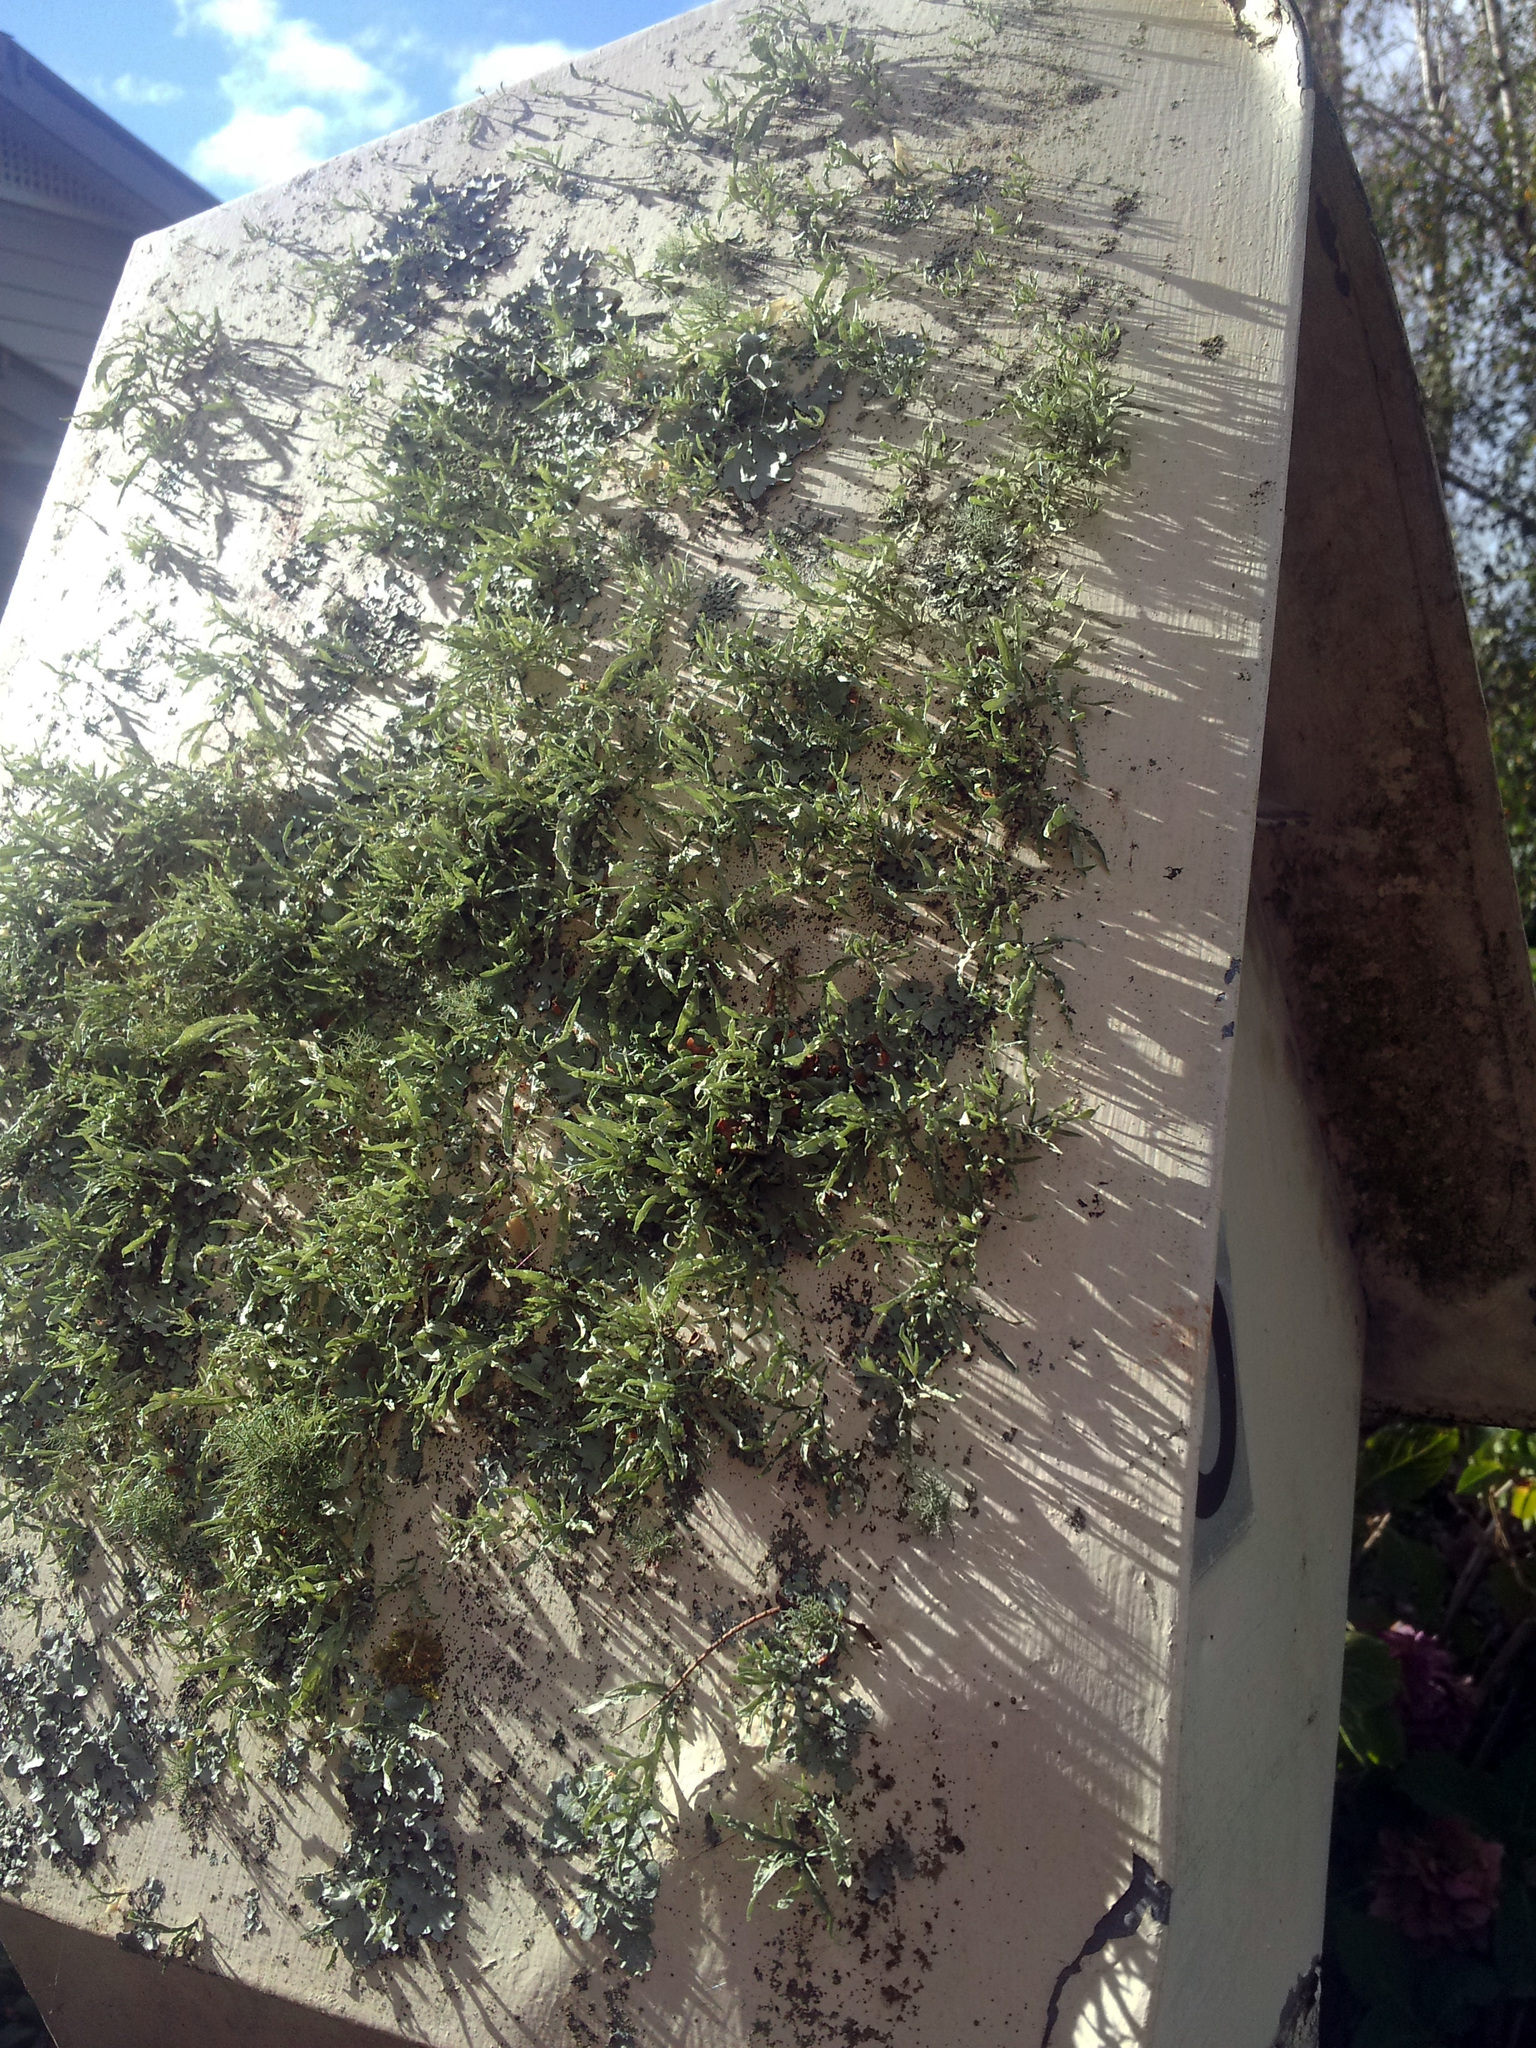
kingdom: Fungi
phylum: Ascomycota
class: Lecanoromycetes
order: Lecanorales
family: Ramalinaceae
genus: Ramalina
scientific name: Ramalina celastri
